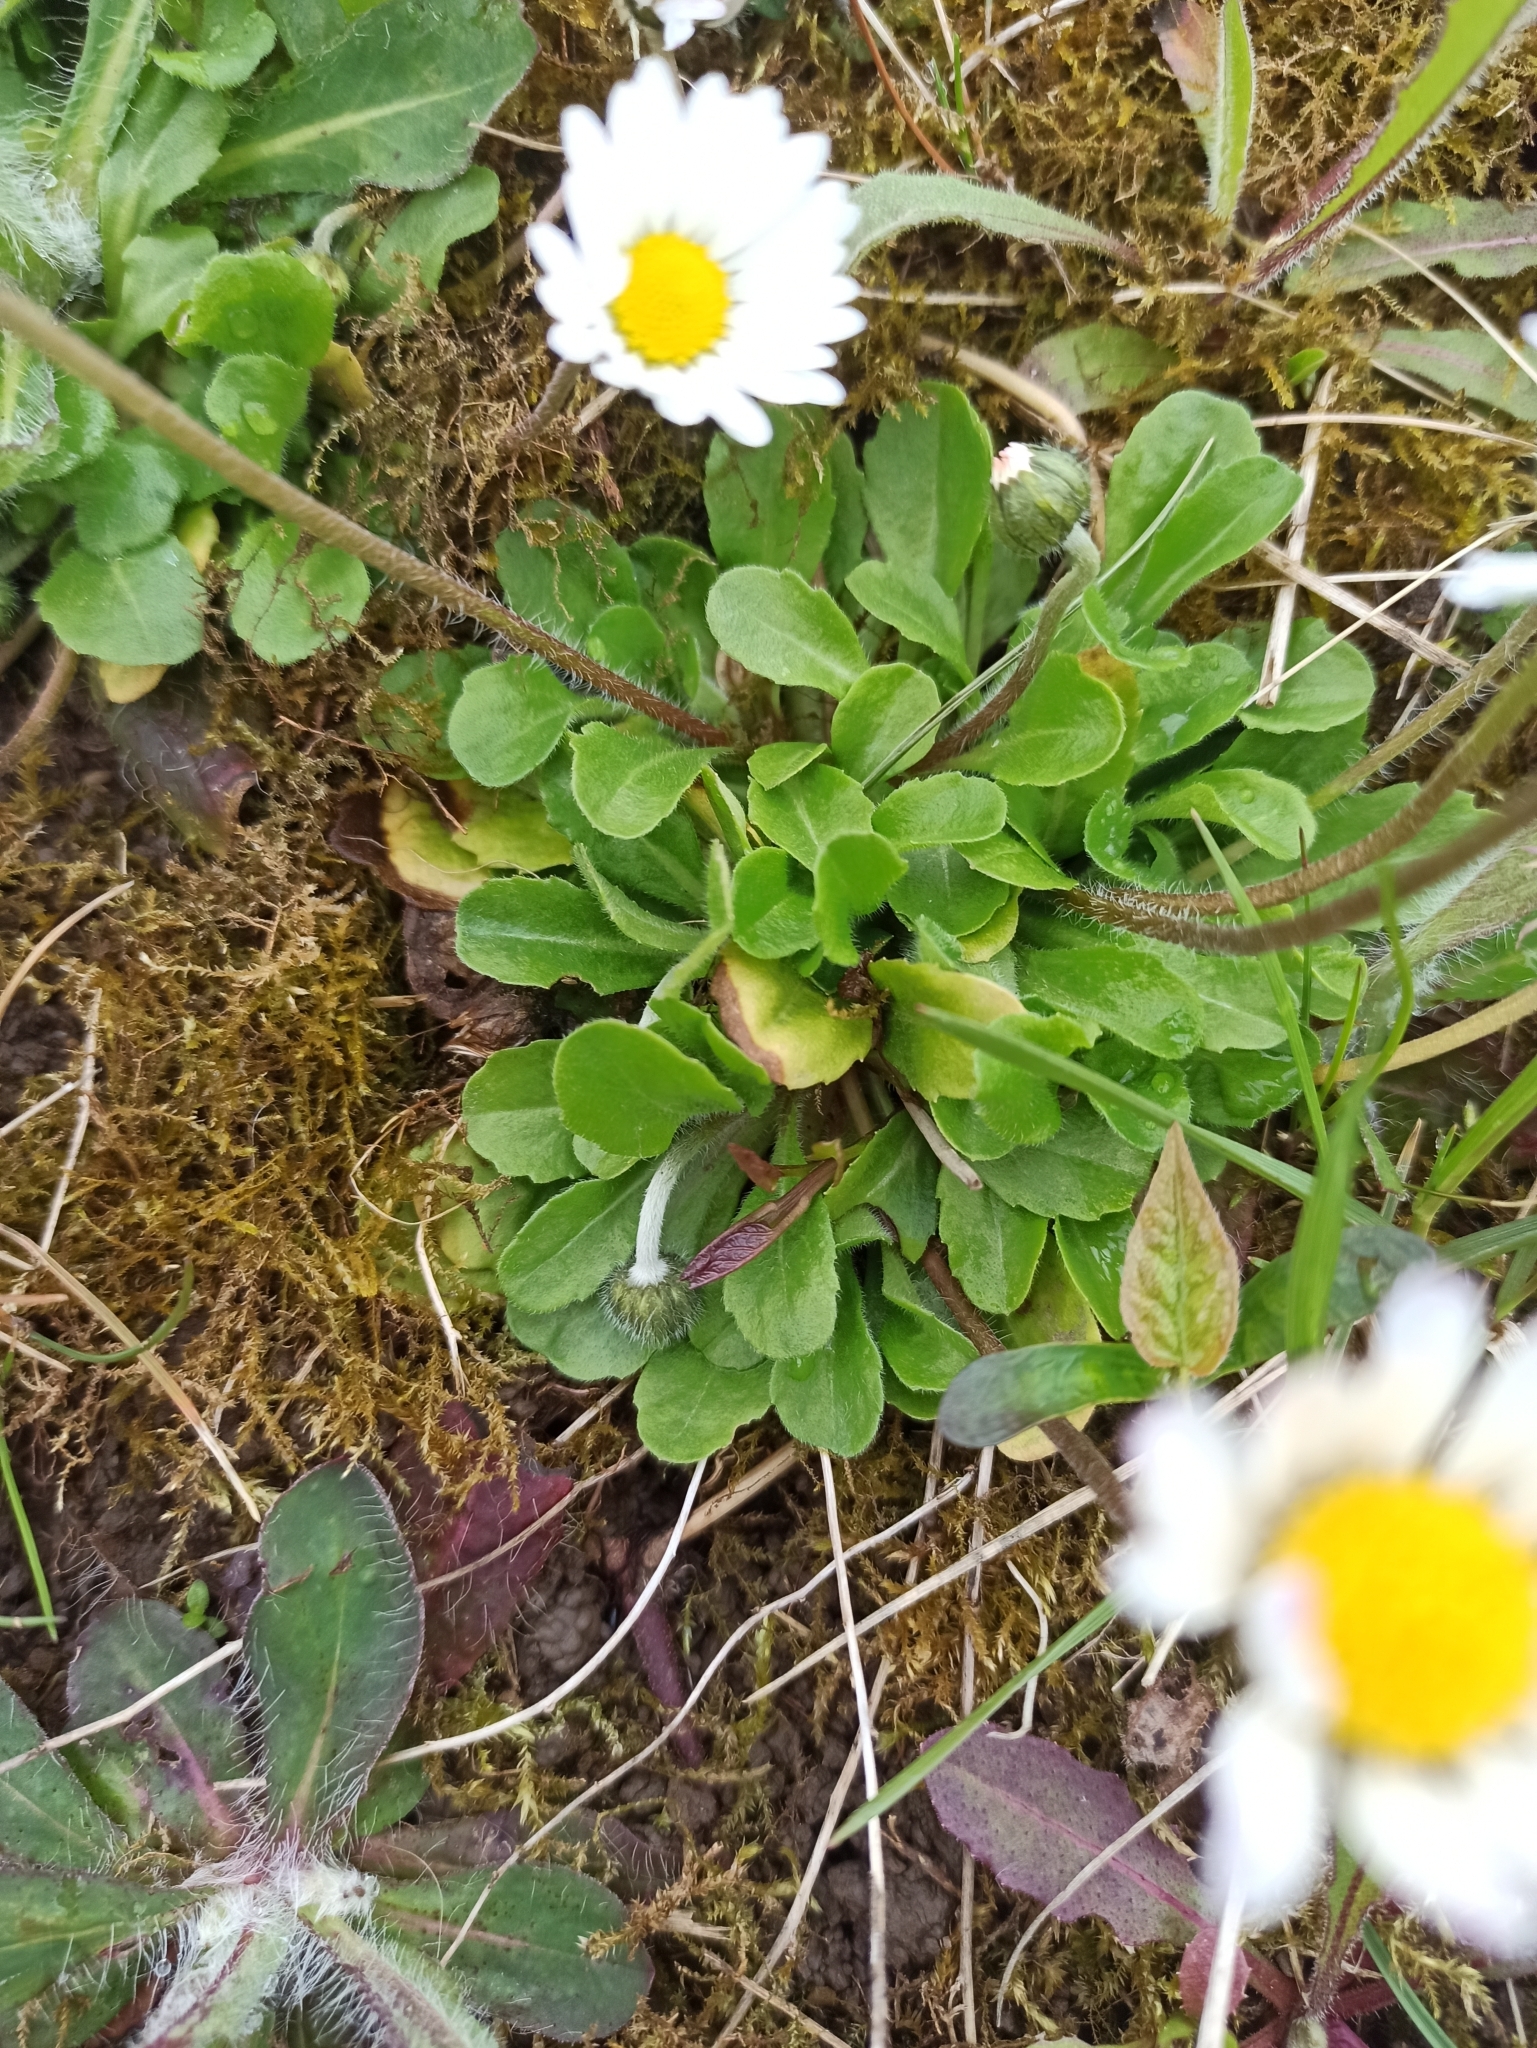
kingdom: Plantae
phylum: Tracheophyta
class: Magnoliopsida
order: Asterales
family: Asteraceae
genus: Bellis
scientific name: Bellis perennis
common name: Lawndaisy
